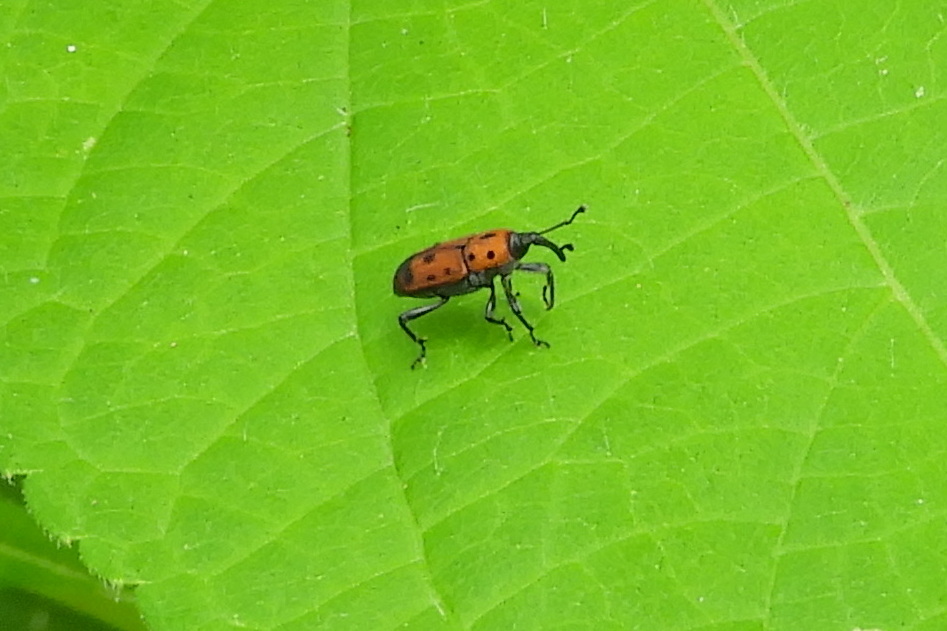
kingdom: Animalia
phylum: Arthropoda
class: Insecta
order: Coleoptera
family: Dryophthoridae
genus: Rhodobaenus
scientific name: Rhodobaenus quinquepunctatus
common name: Cocklebur weevil
